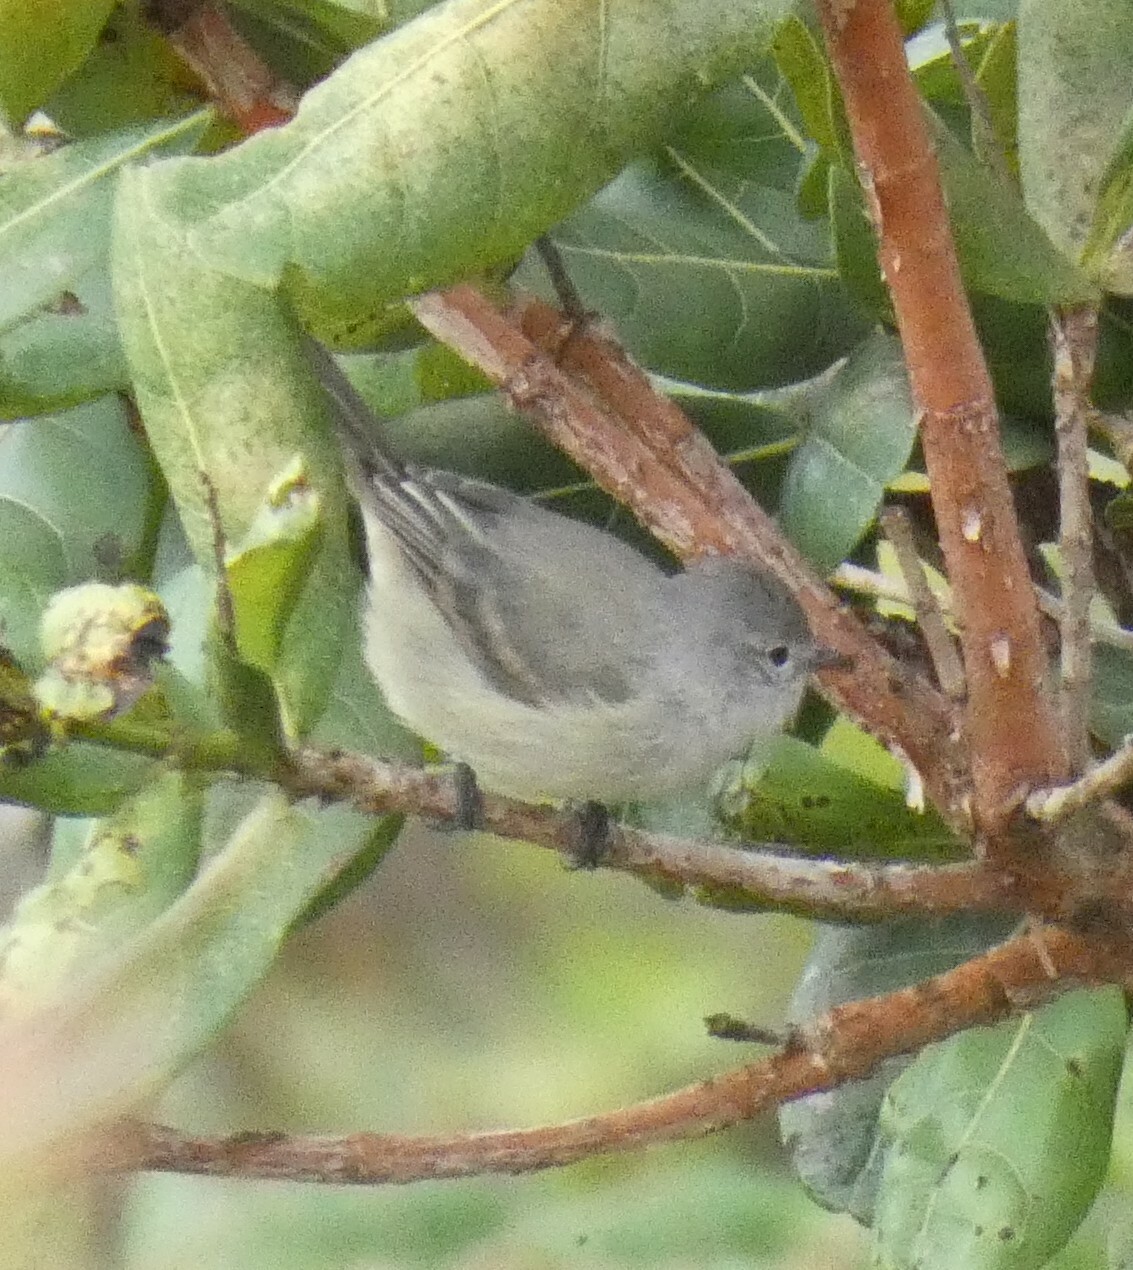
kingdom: Animalia
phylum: Chordata
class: Aves
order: Passeriformes
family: Tyrannidae
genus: Camptostoma
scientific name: Camptostoma obsoletum
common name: Southern beardless-tyrannulet
